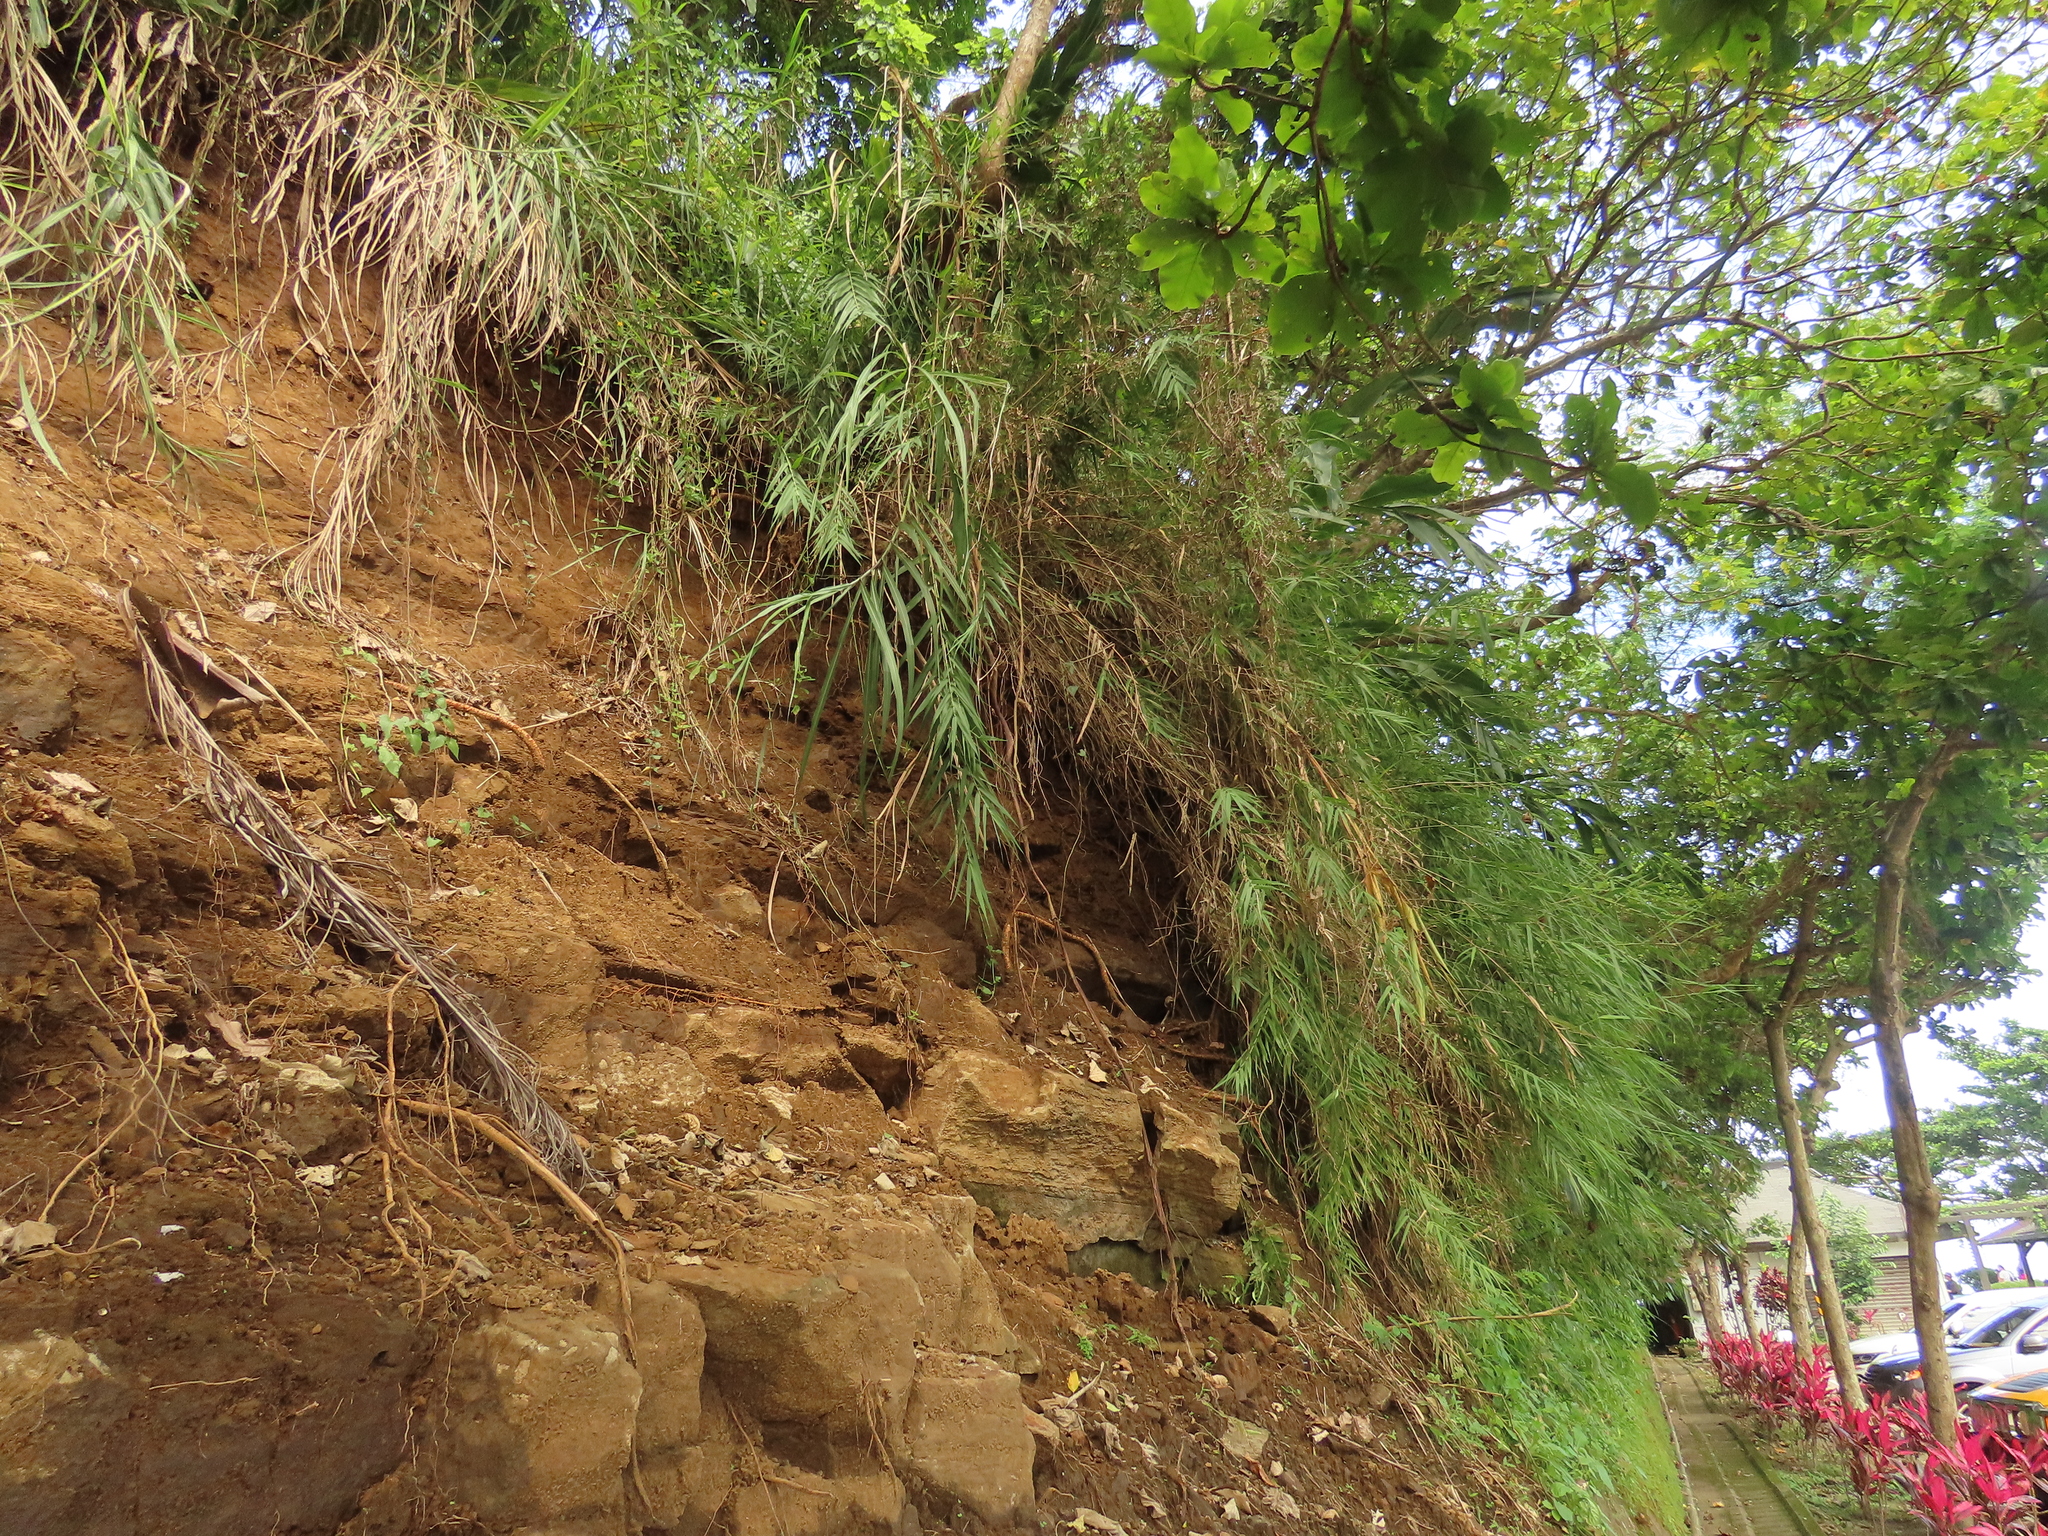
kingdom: Plantae
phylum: Tracheophyta
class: Liliopsida
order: Poales
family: Poaceae
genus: Arundo
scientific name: Arundo formosana
